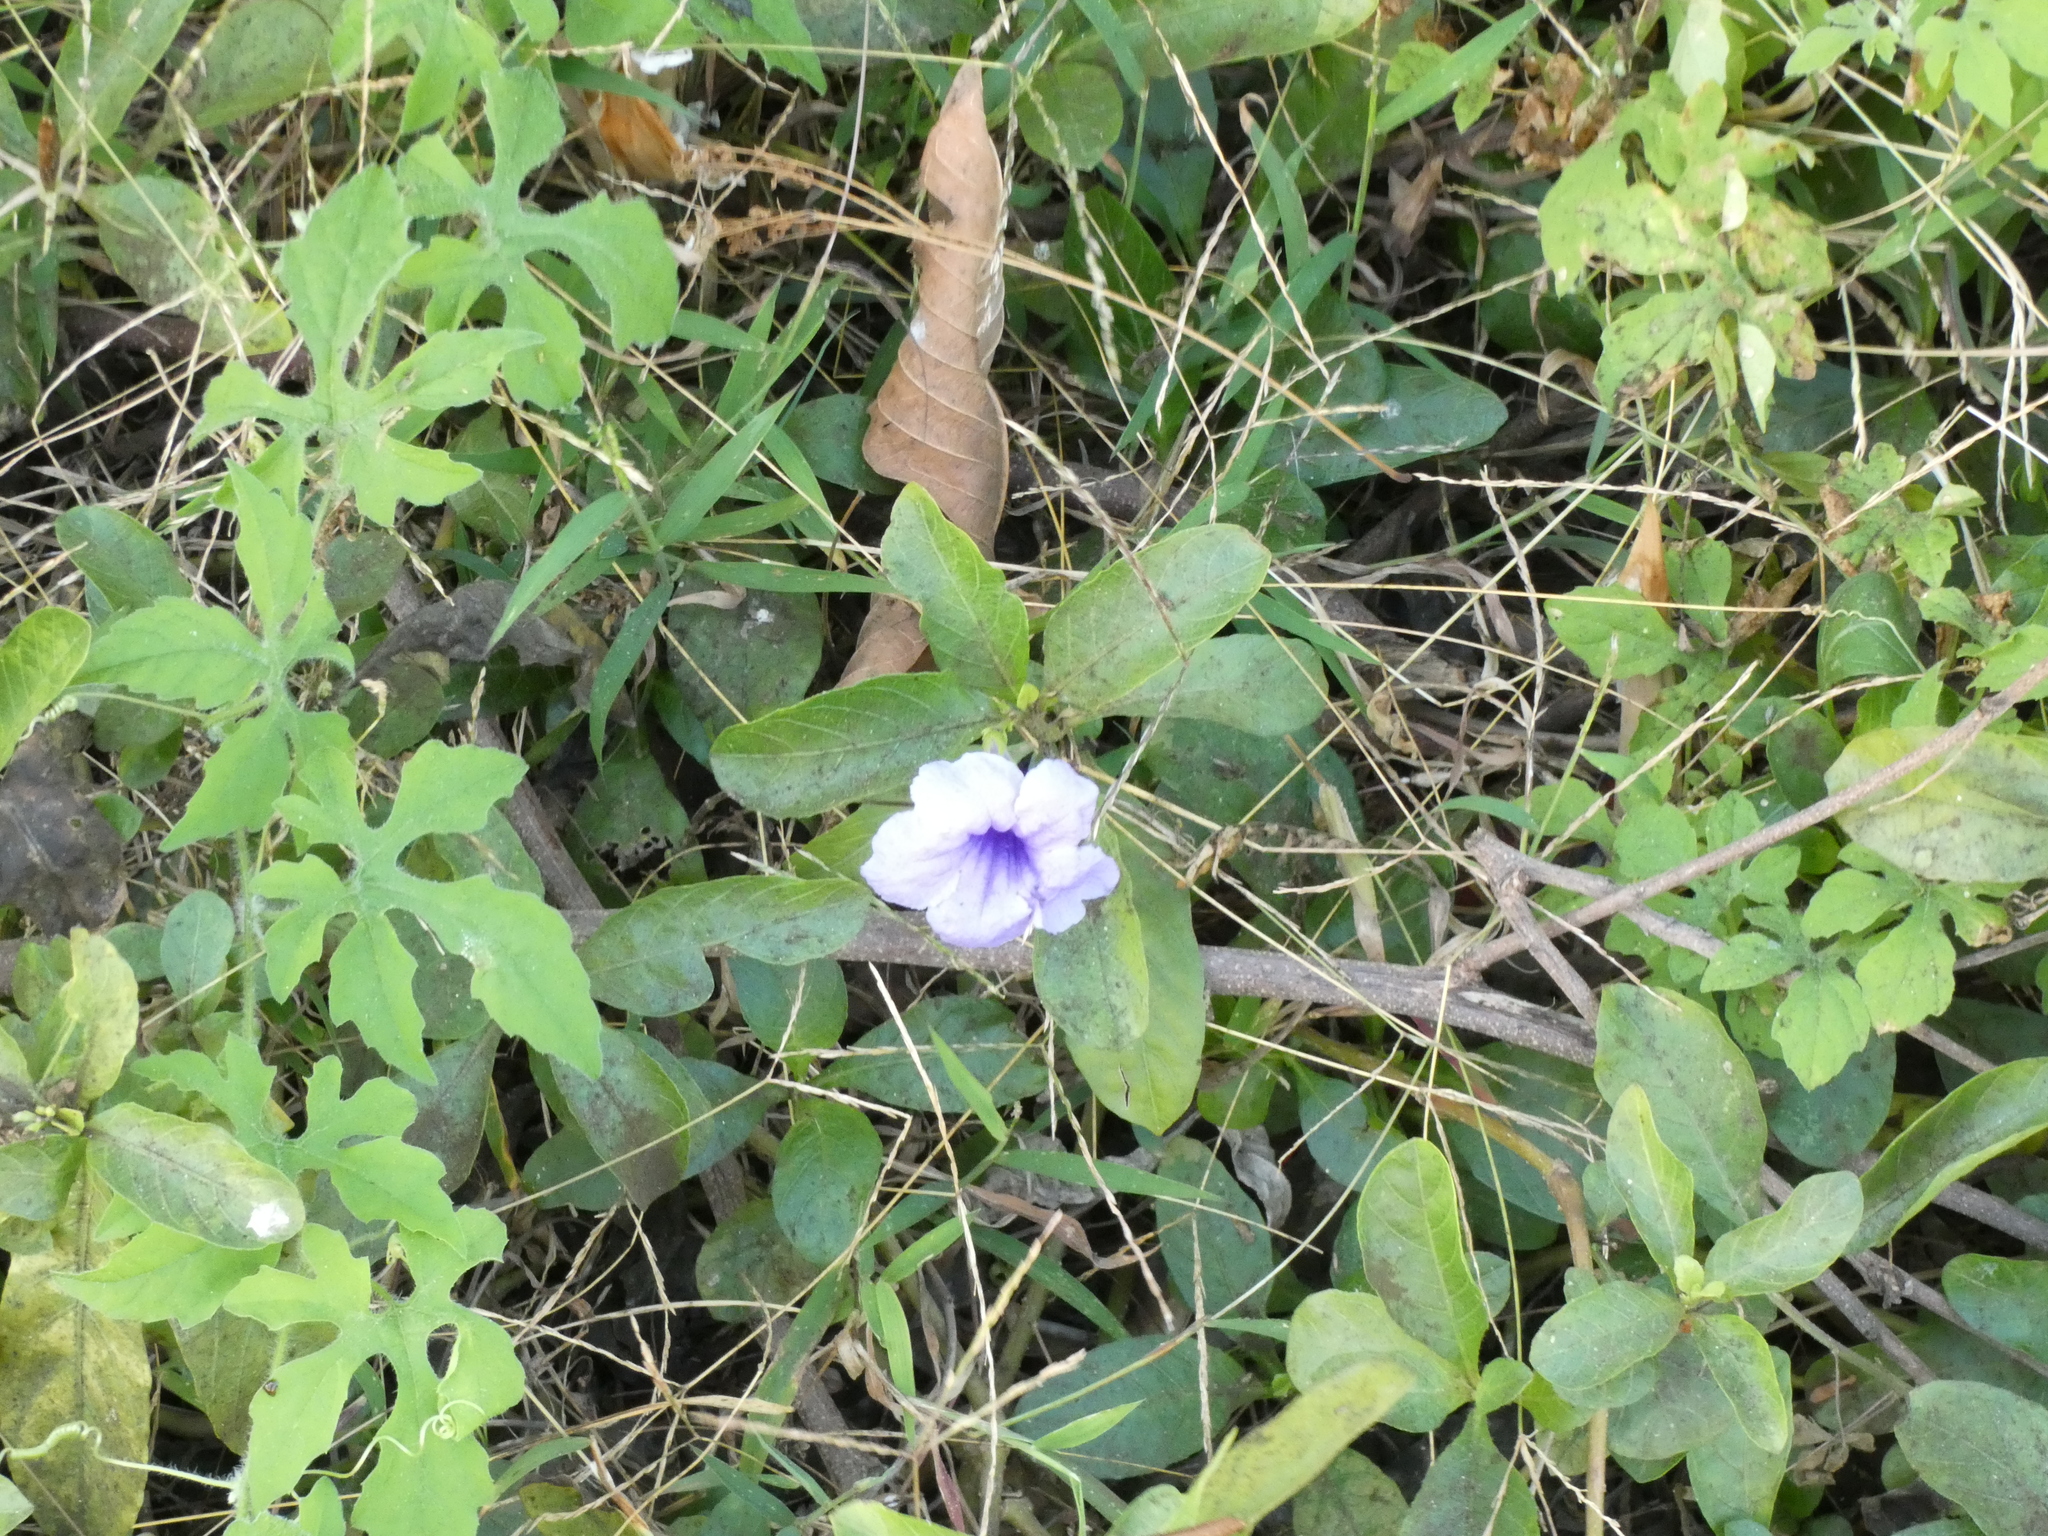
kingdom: Plantae
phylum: Tracheophyta
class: Magnoliopsida
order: Lamiales
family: Acanthaceae
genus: Ruellia
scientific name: Ruellia tuberosa
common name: Devil's bit
